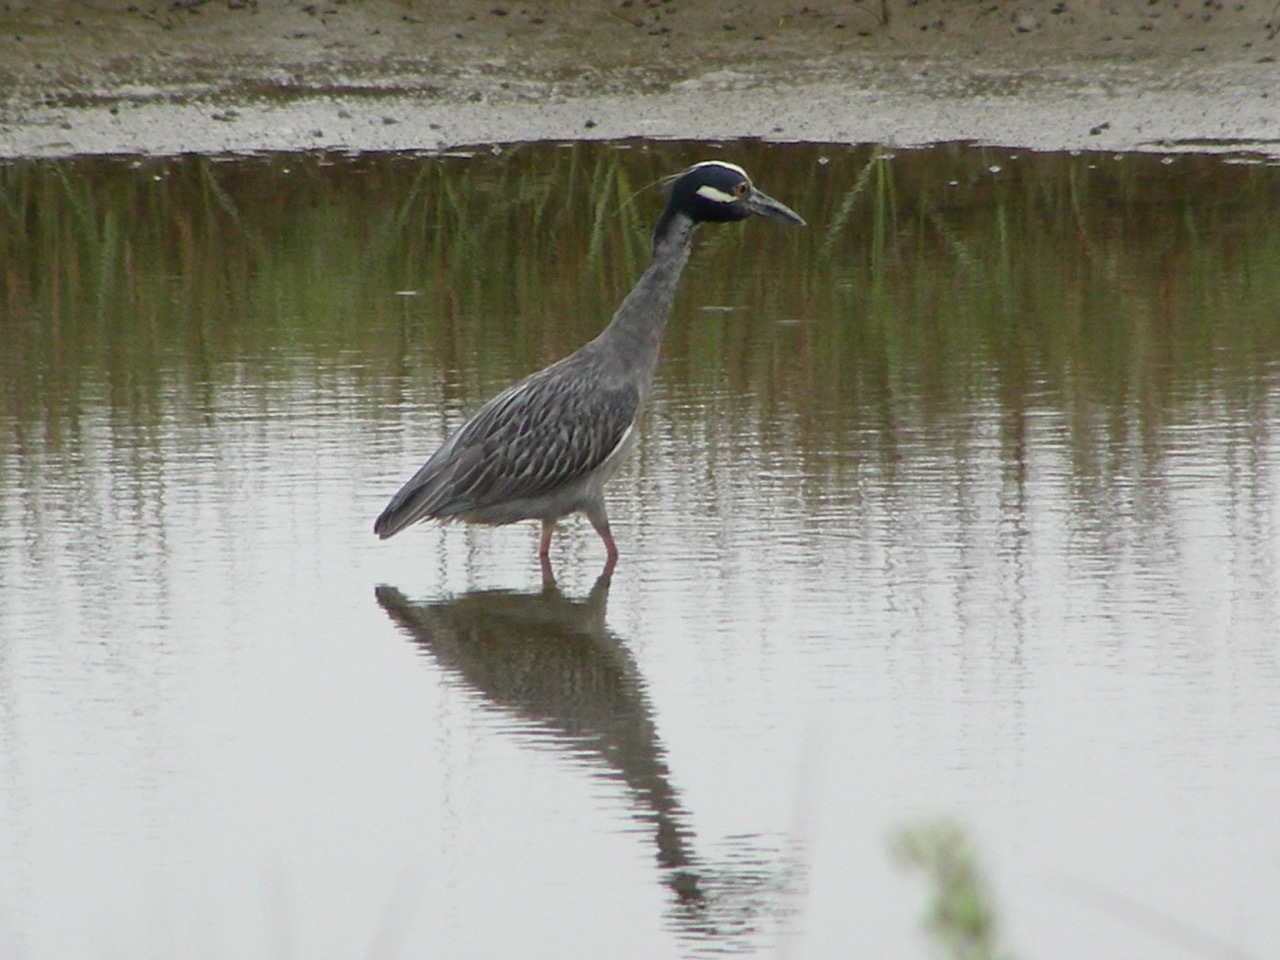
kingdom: Animalia
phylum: Chordata
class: Aves
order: Pelecaniformes
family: Ardeidae
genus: Nyctanassa
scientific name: Nyctanassa violacea
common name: Yellow-crowned night heron
